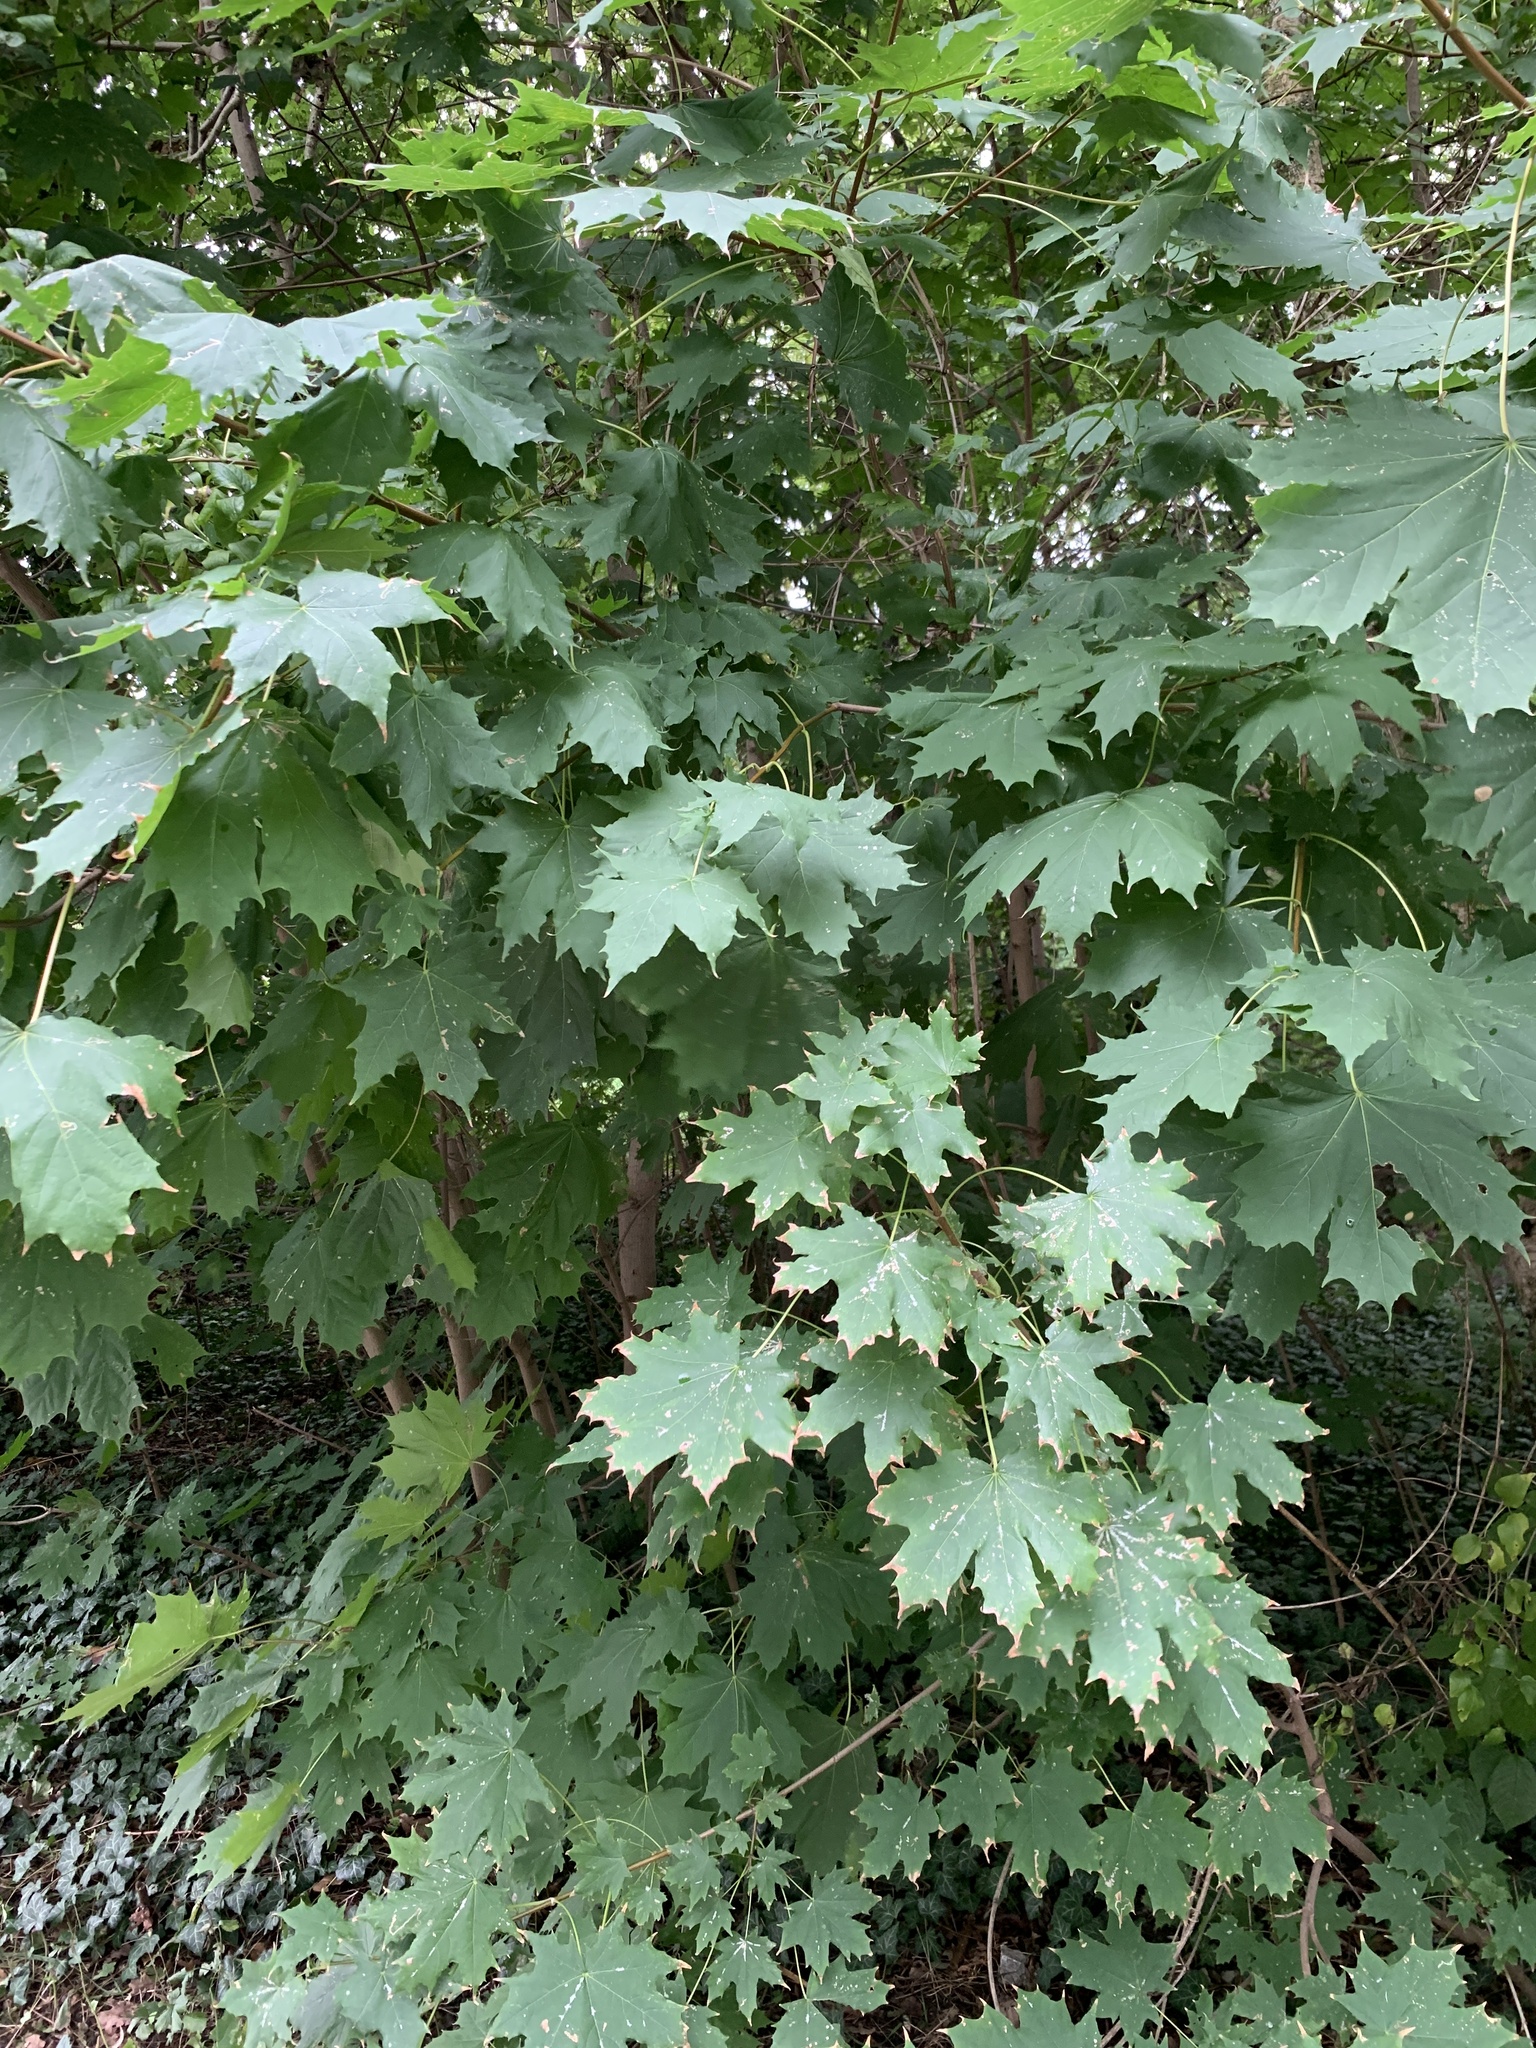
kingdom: Plantae
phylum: Tracheophyta
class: Magnoliopsida
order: Sapindales
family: Sapindaceae
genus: Acer
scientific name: Acer platanoides
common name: Norway maple
